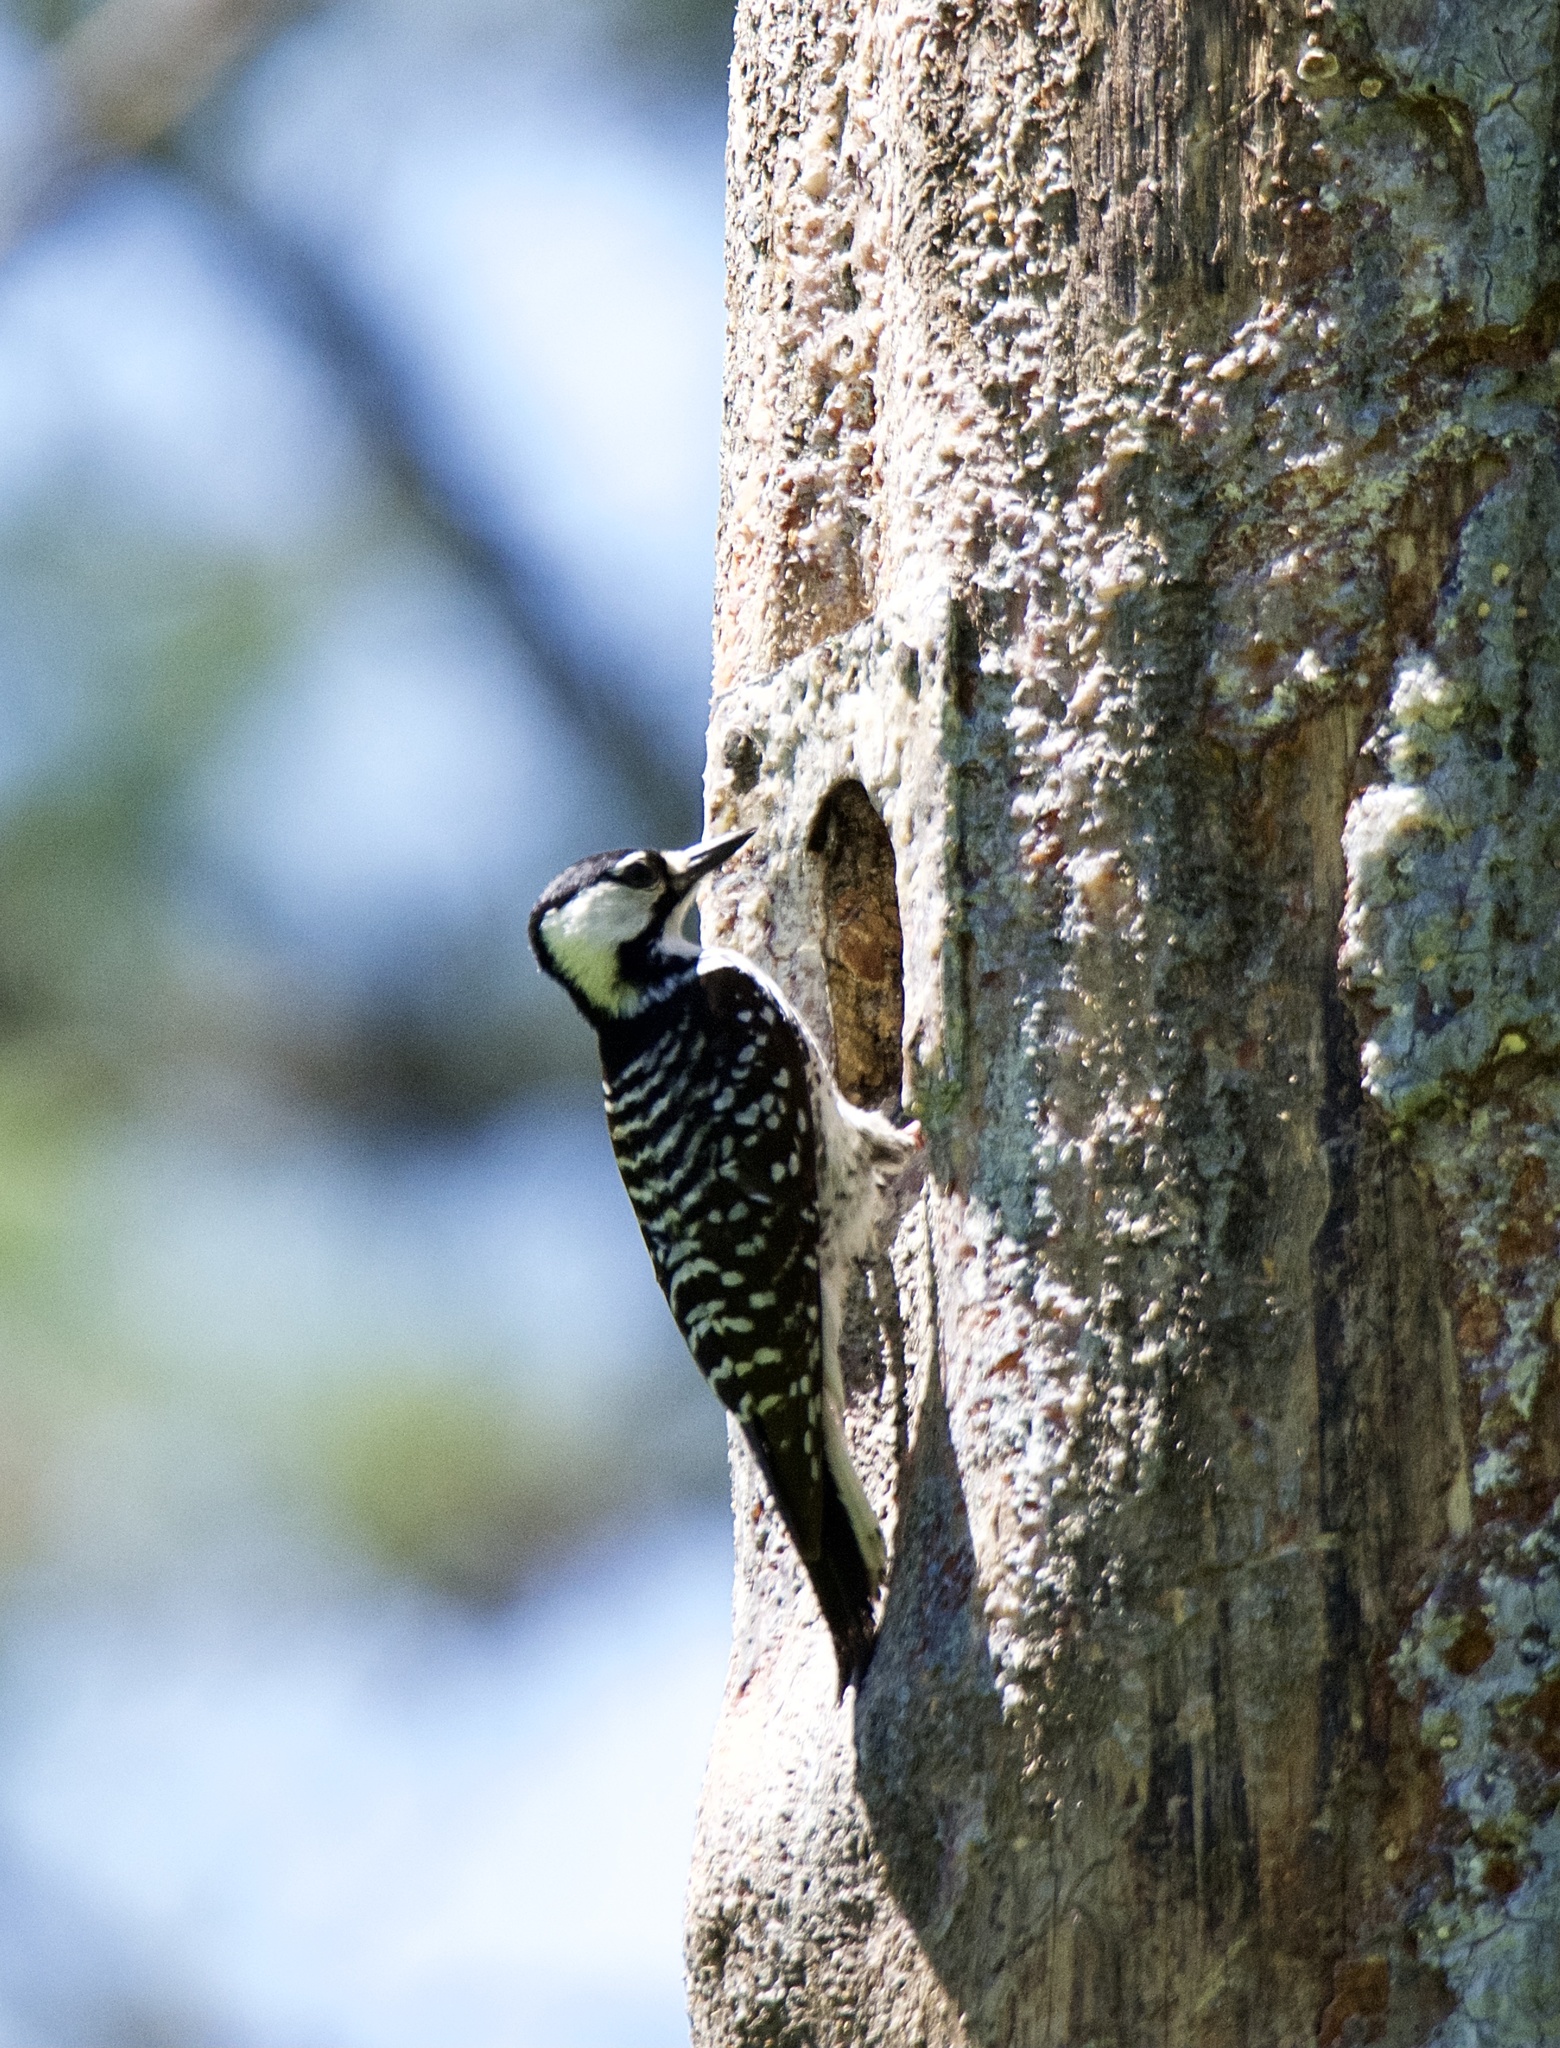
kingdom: Animalia
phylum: Chordata
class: Aves
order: Piciformes
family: Picidae
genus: Leuconotopicus
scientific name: Leuconotopicus borealis
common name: Red-cockaded woodpecker
